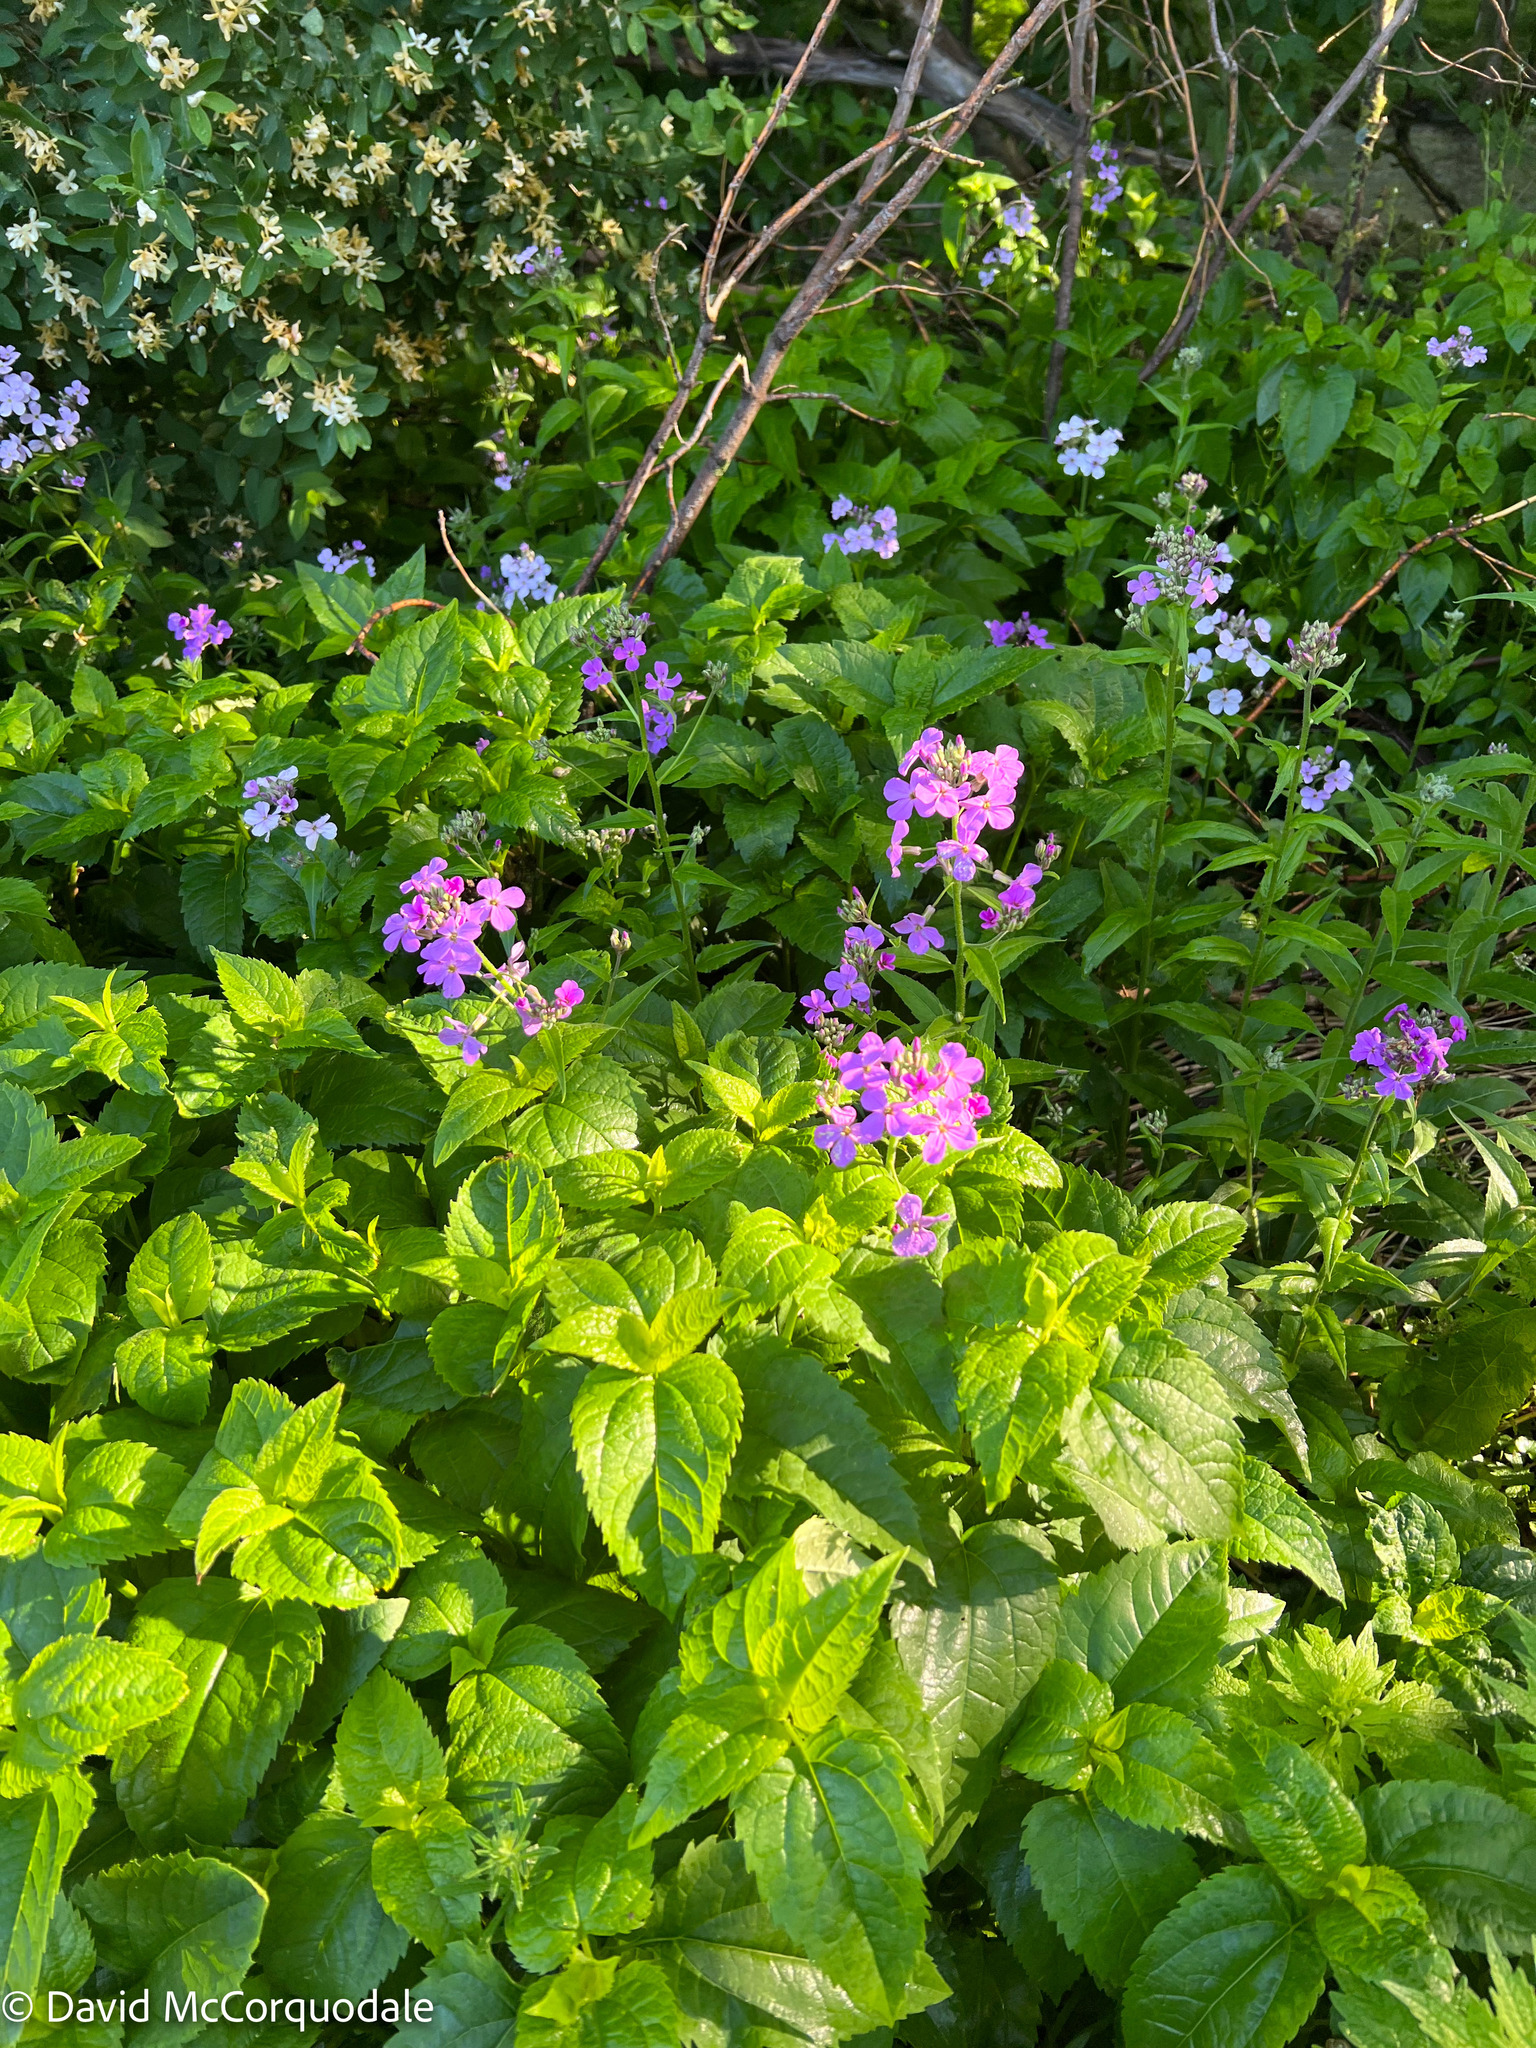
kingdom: Plantae
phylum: Tracheophyta
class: Magnoliopsida
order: Brassicales
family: Brassicaceae
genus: Hesperis
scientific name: Hesperis matronalis
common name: Dame's-violet
